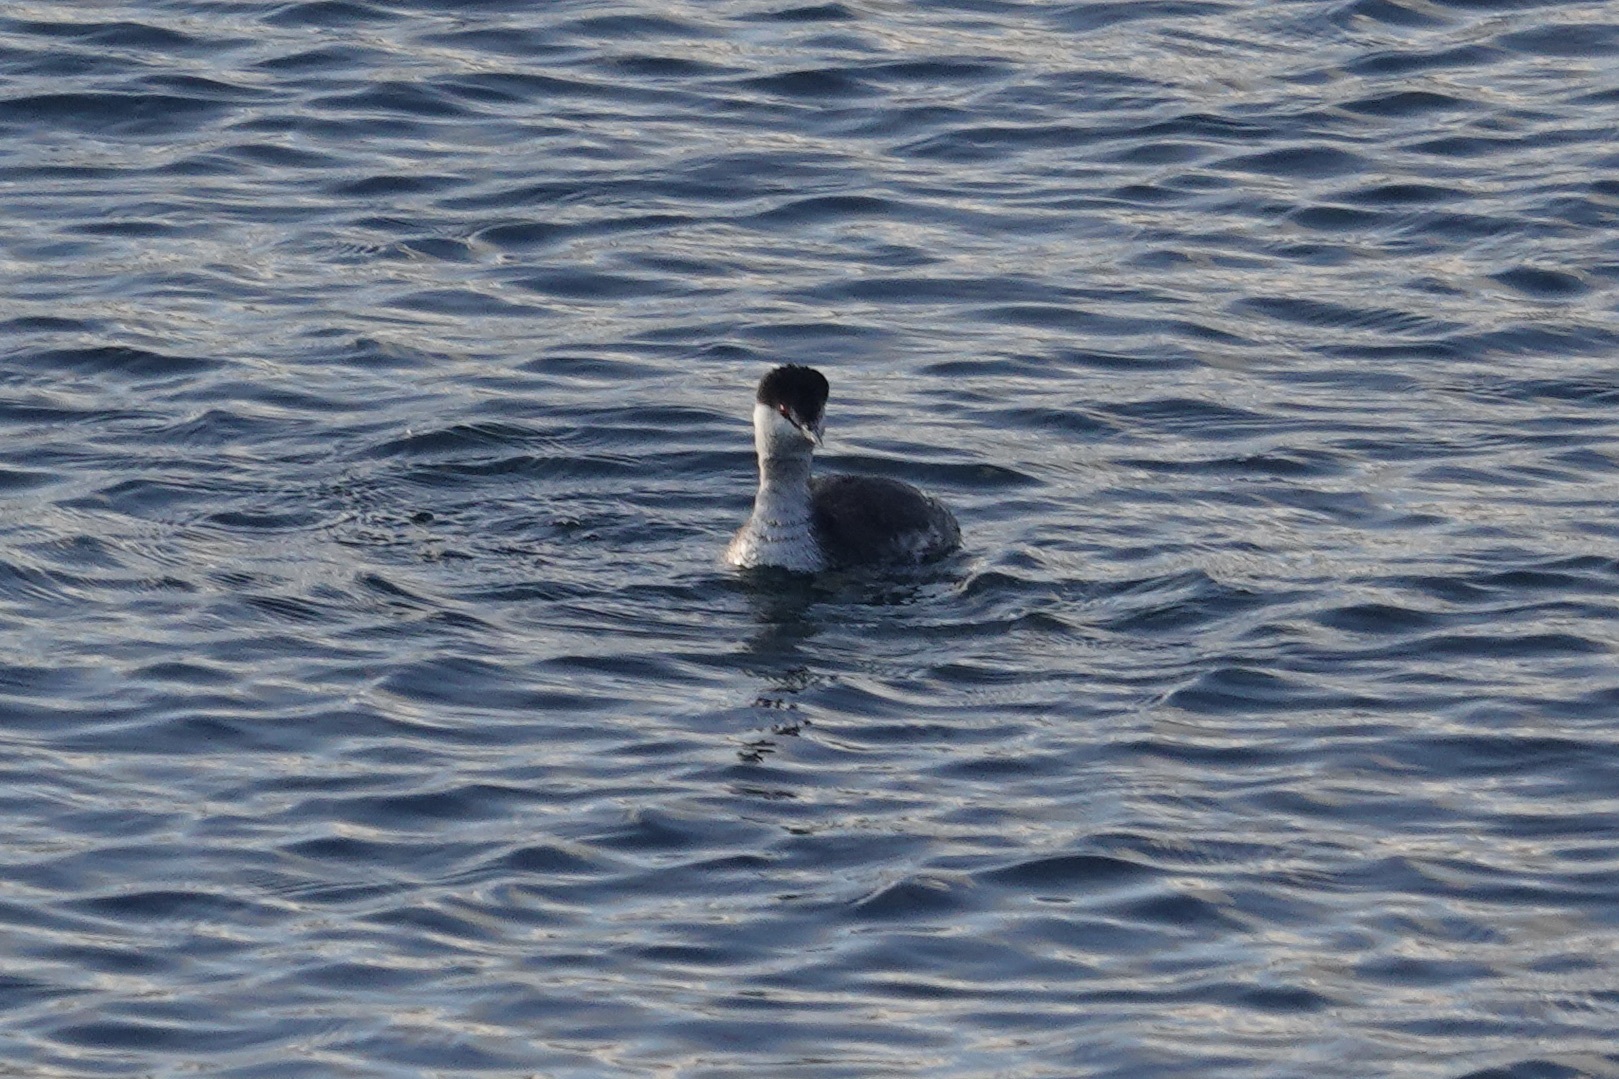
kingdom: Animalia
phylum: Chordata
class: Aves
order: Podicipediformes
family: Podicipedidae
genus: Podiceps
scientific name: Podiceps auritus
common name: Horned grebe
